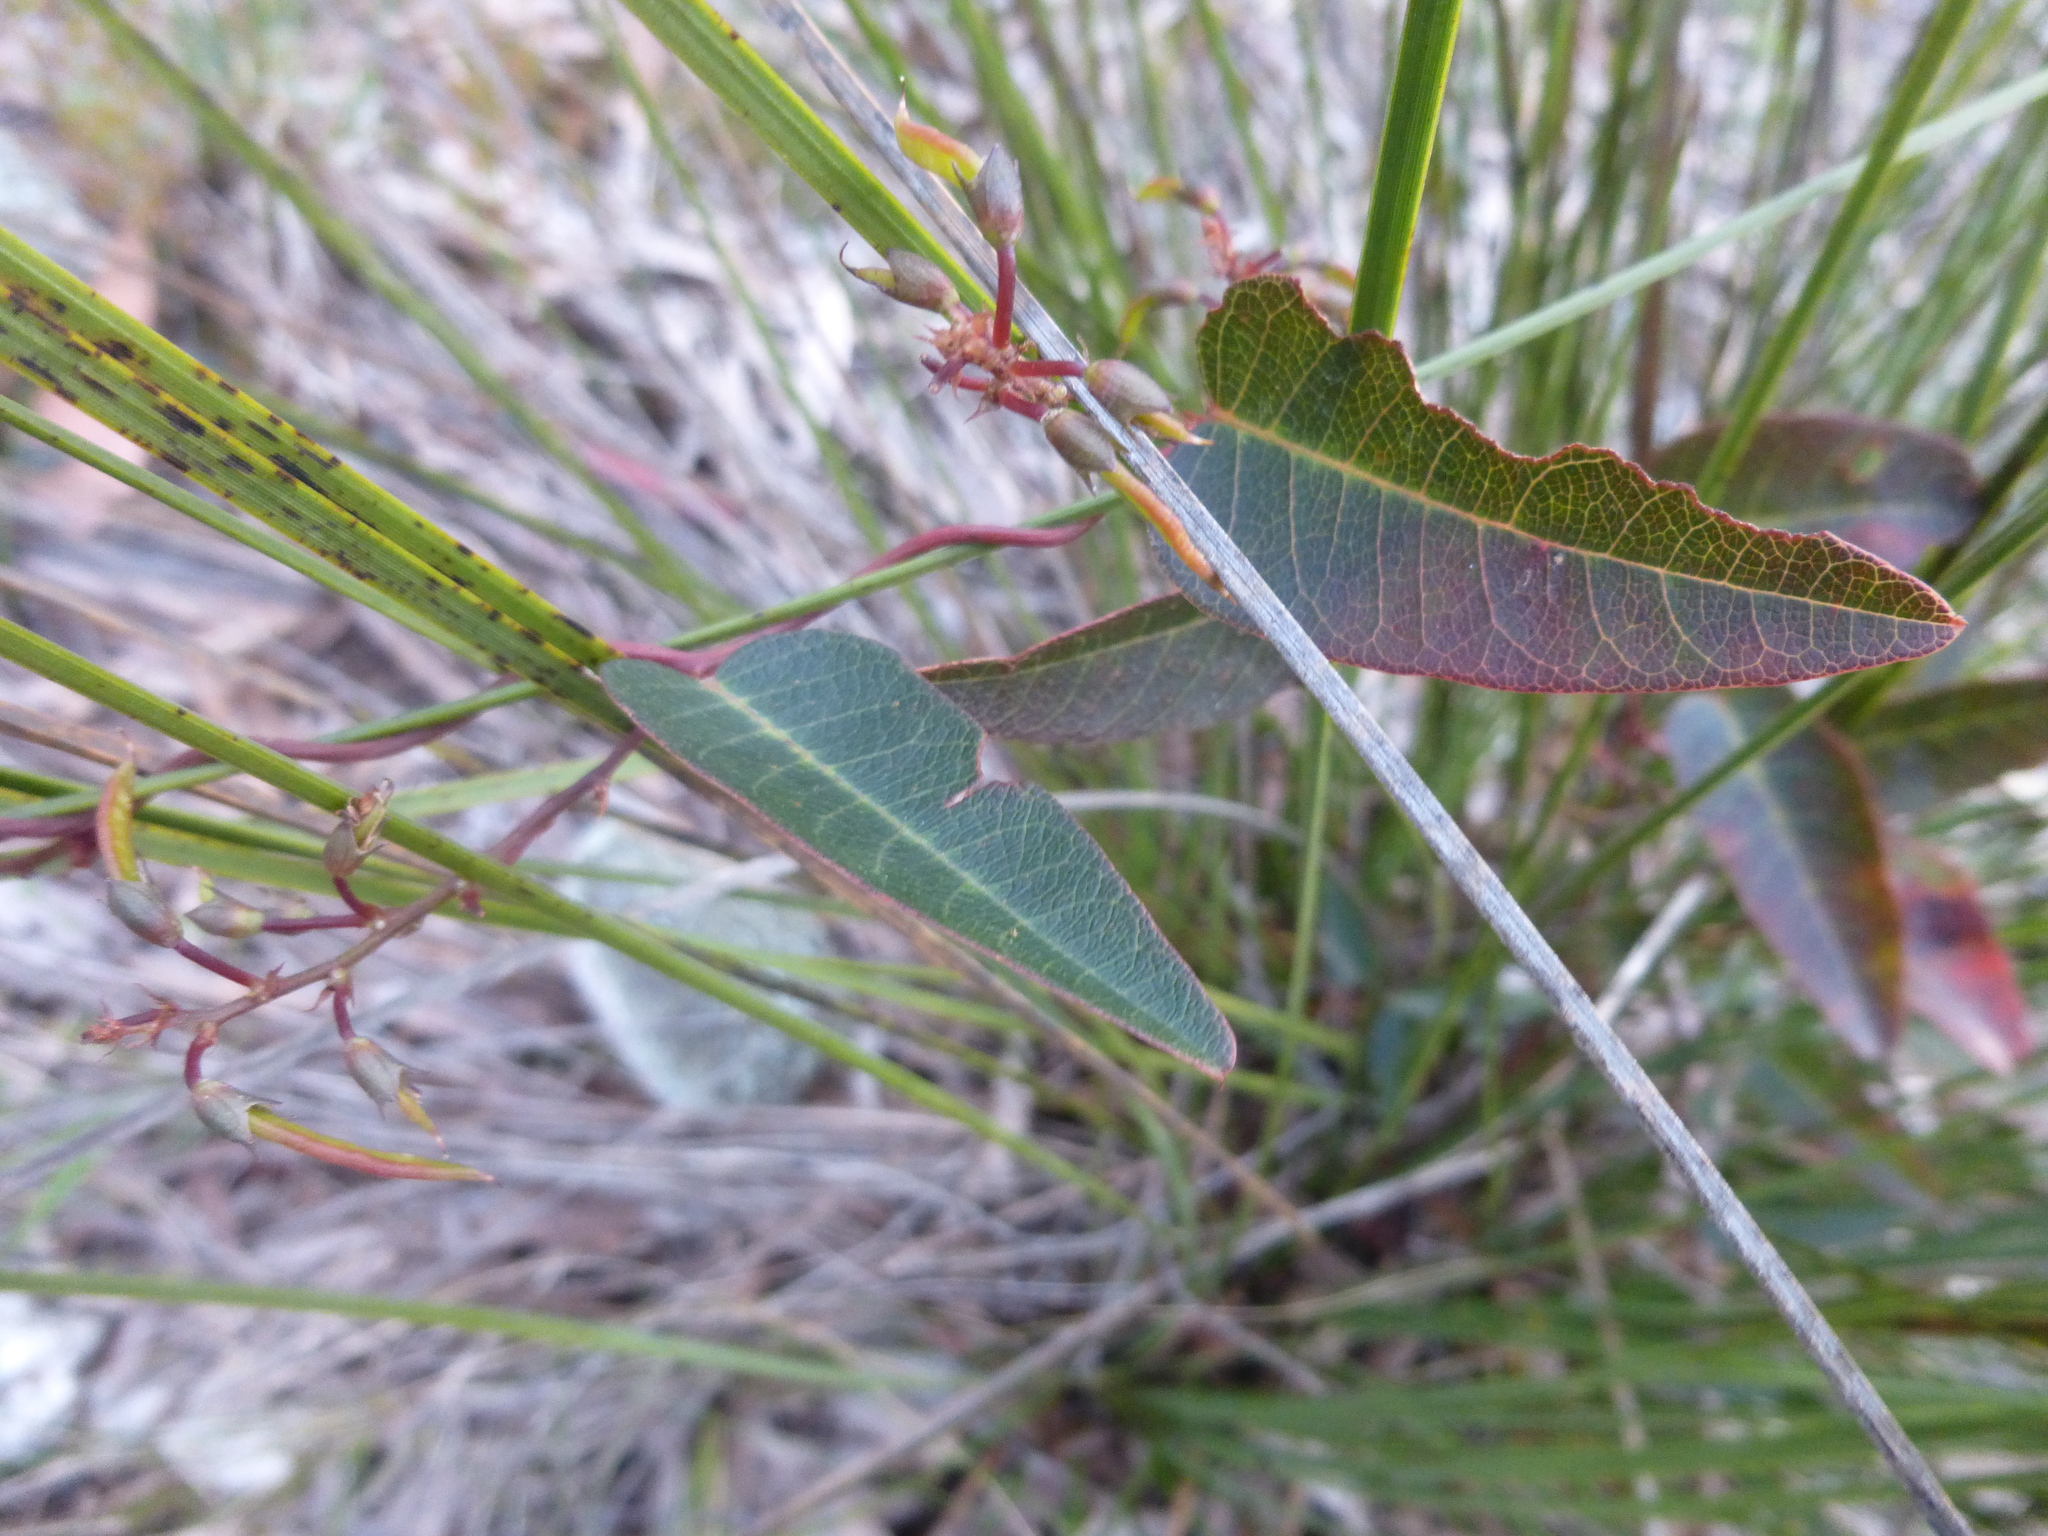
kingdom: Plantae
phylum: Tracheophyta
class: Magnoliopsida
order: Fabales
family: Fabaceae
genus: Hardenbergia
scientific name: Hardenbergia violacea
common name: Coral-pea
